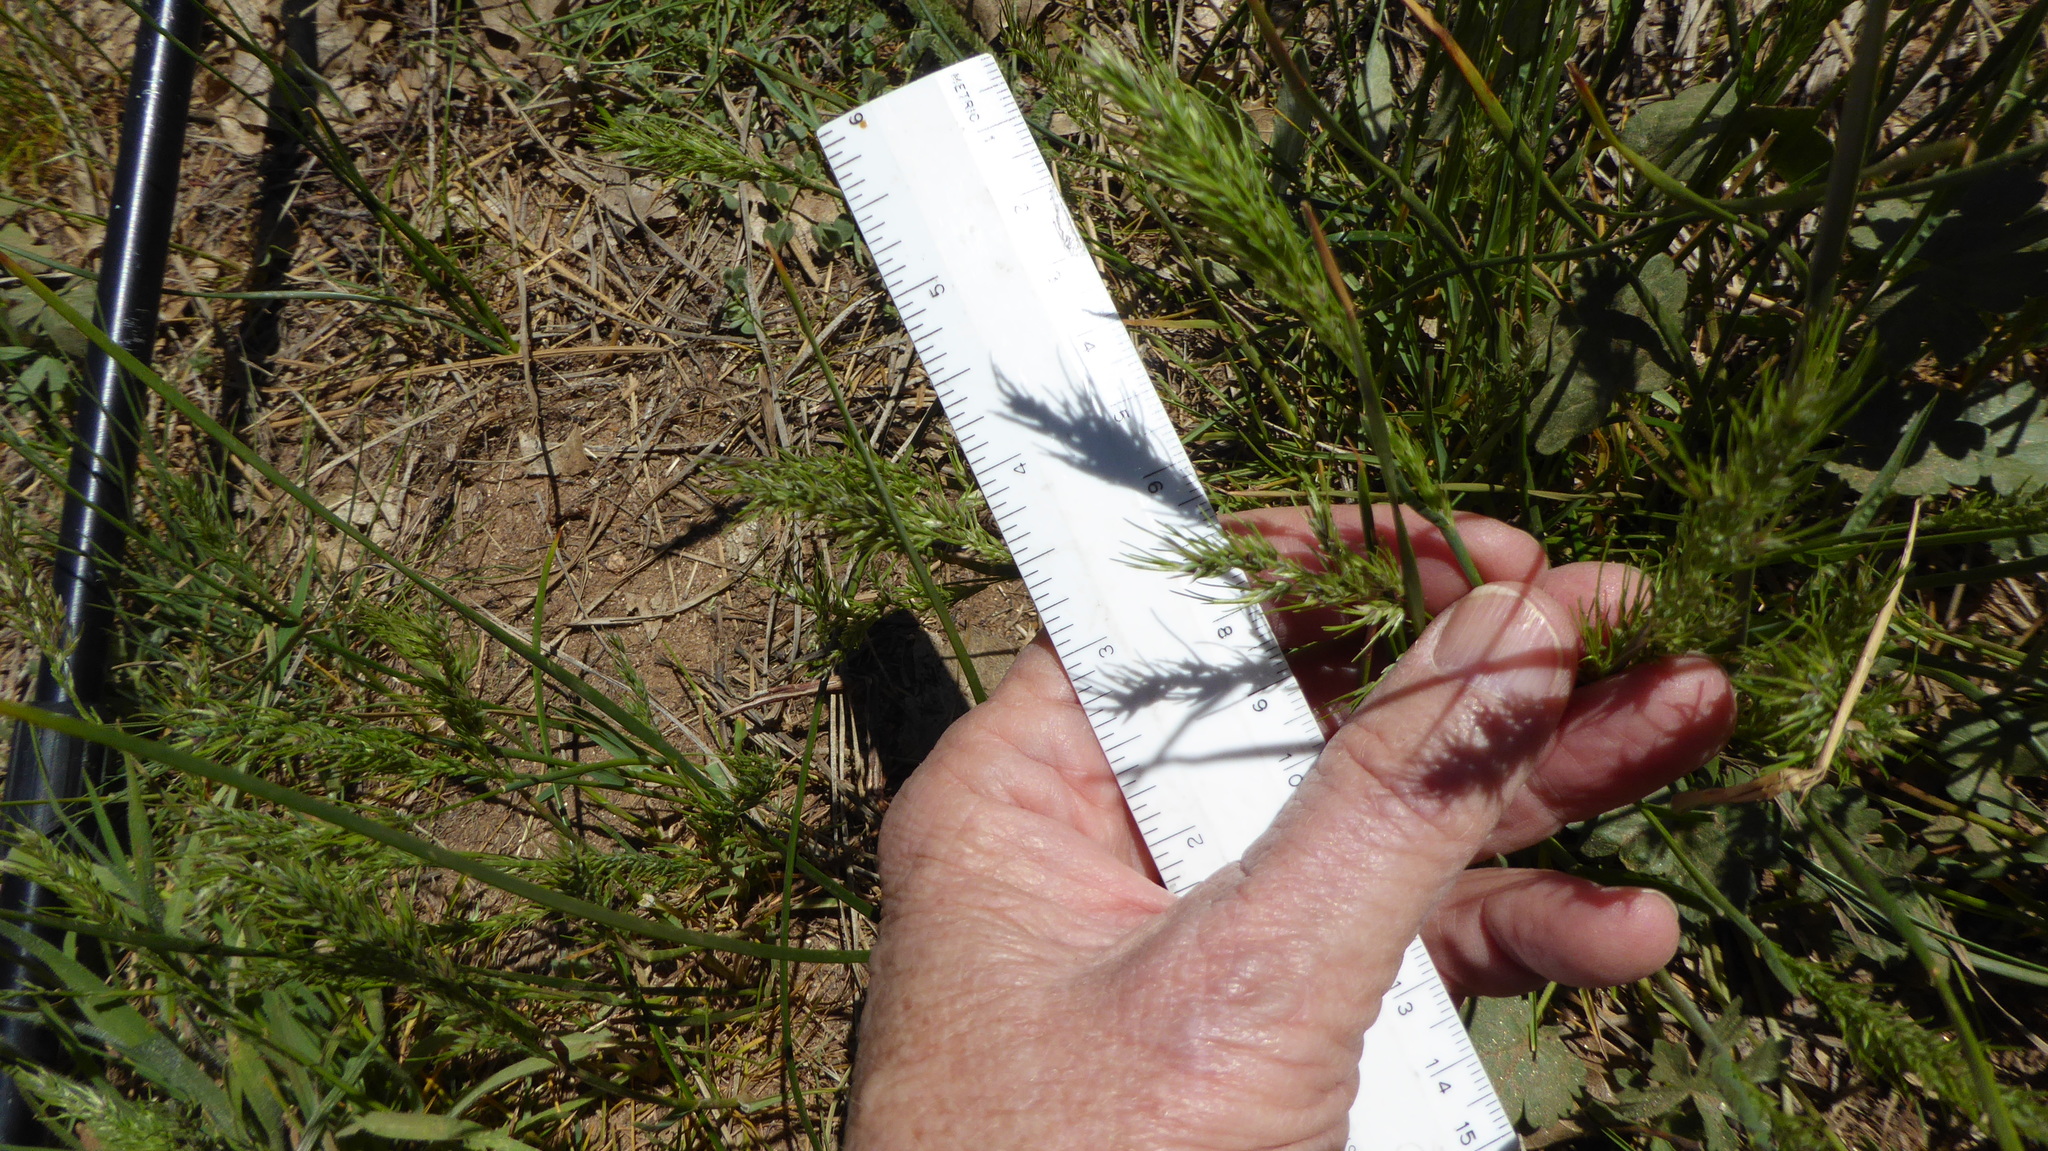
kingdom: Plantae
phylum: Tracheophyta
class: Liliopsida
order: Poales
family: Poaceae
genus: Poa
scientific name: Poa bulbosa
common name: Bulbous bluegrass
